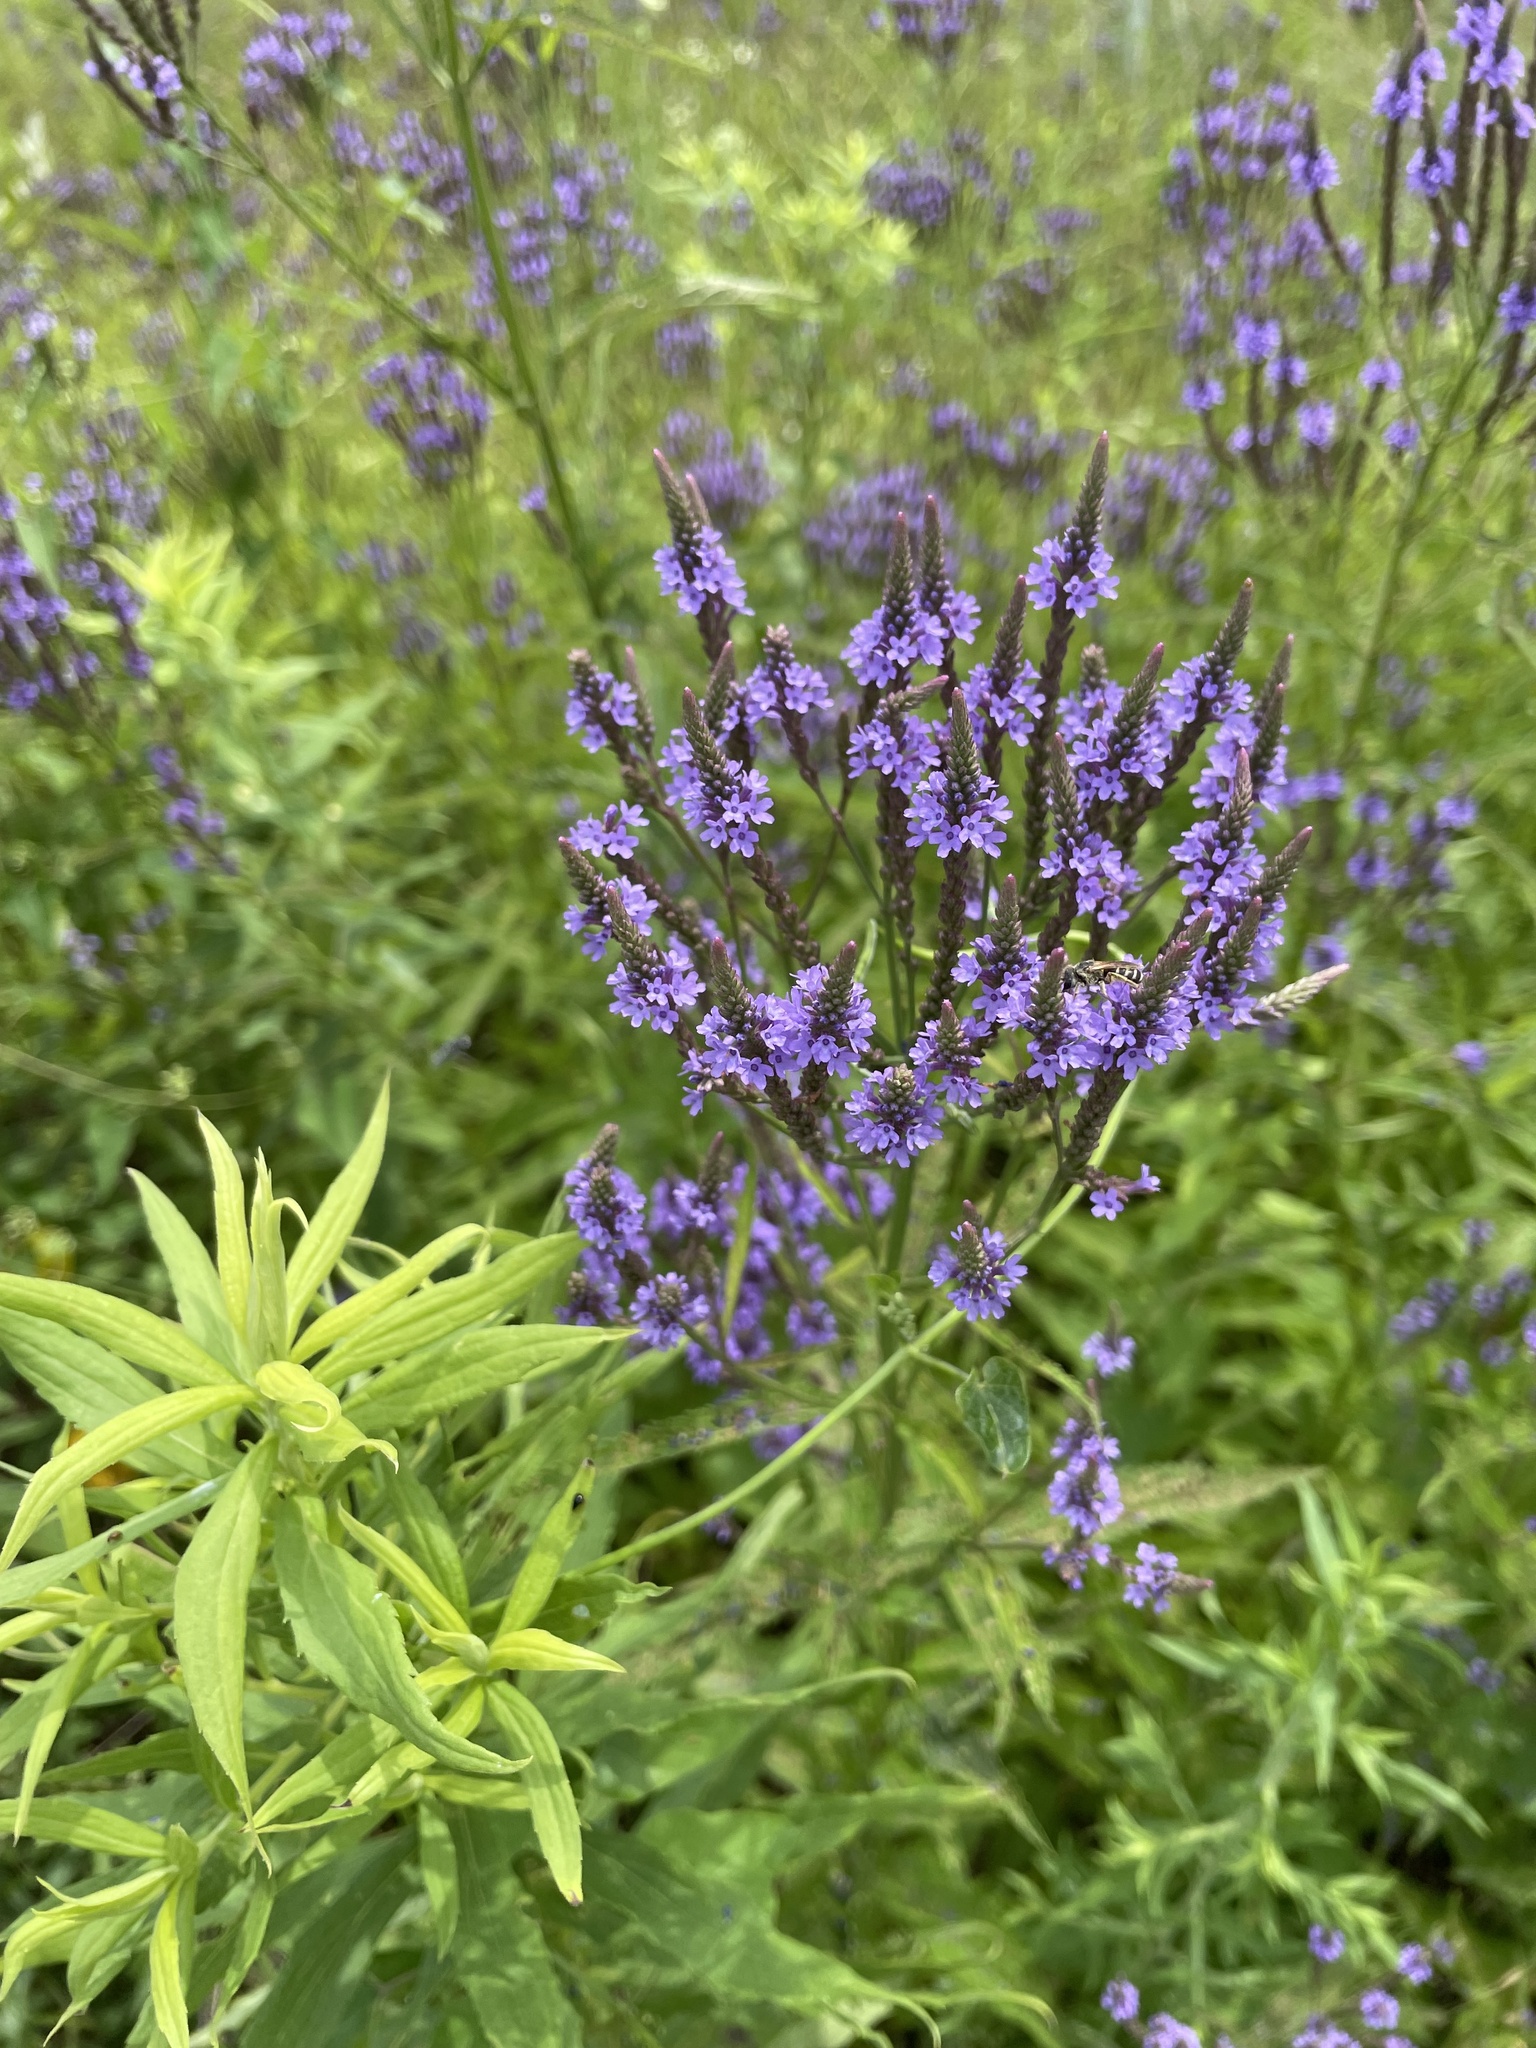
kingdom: Plantae
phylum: Tracheophyta
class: Magnoliopsida
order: Lamiales
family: Verbenaceae
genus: Verbena
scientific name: Verbena hastata
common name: American blue vervain
